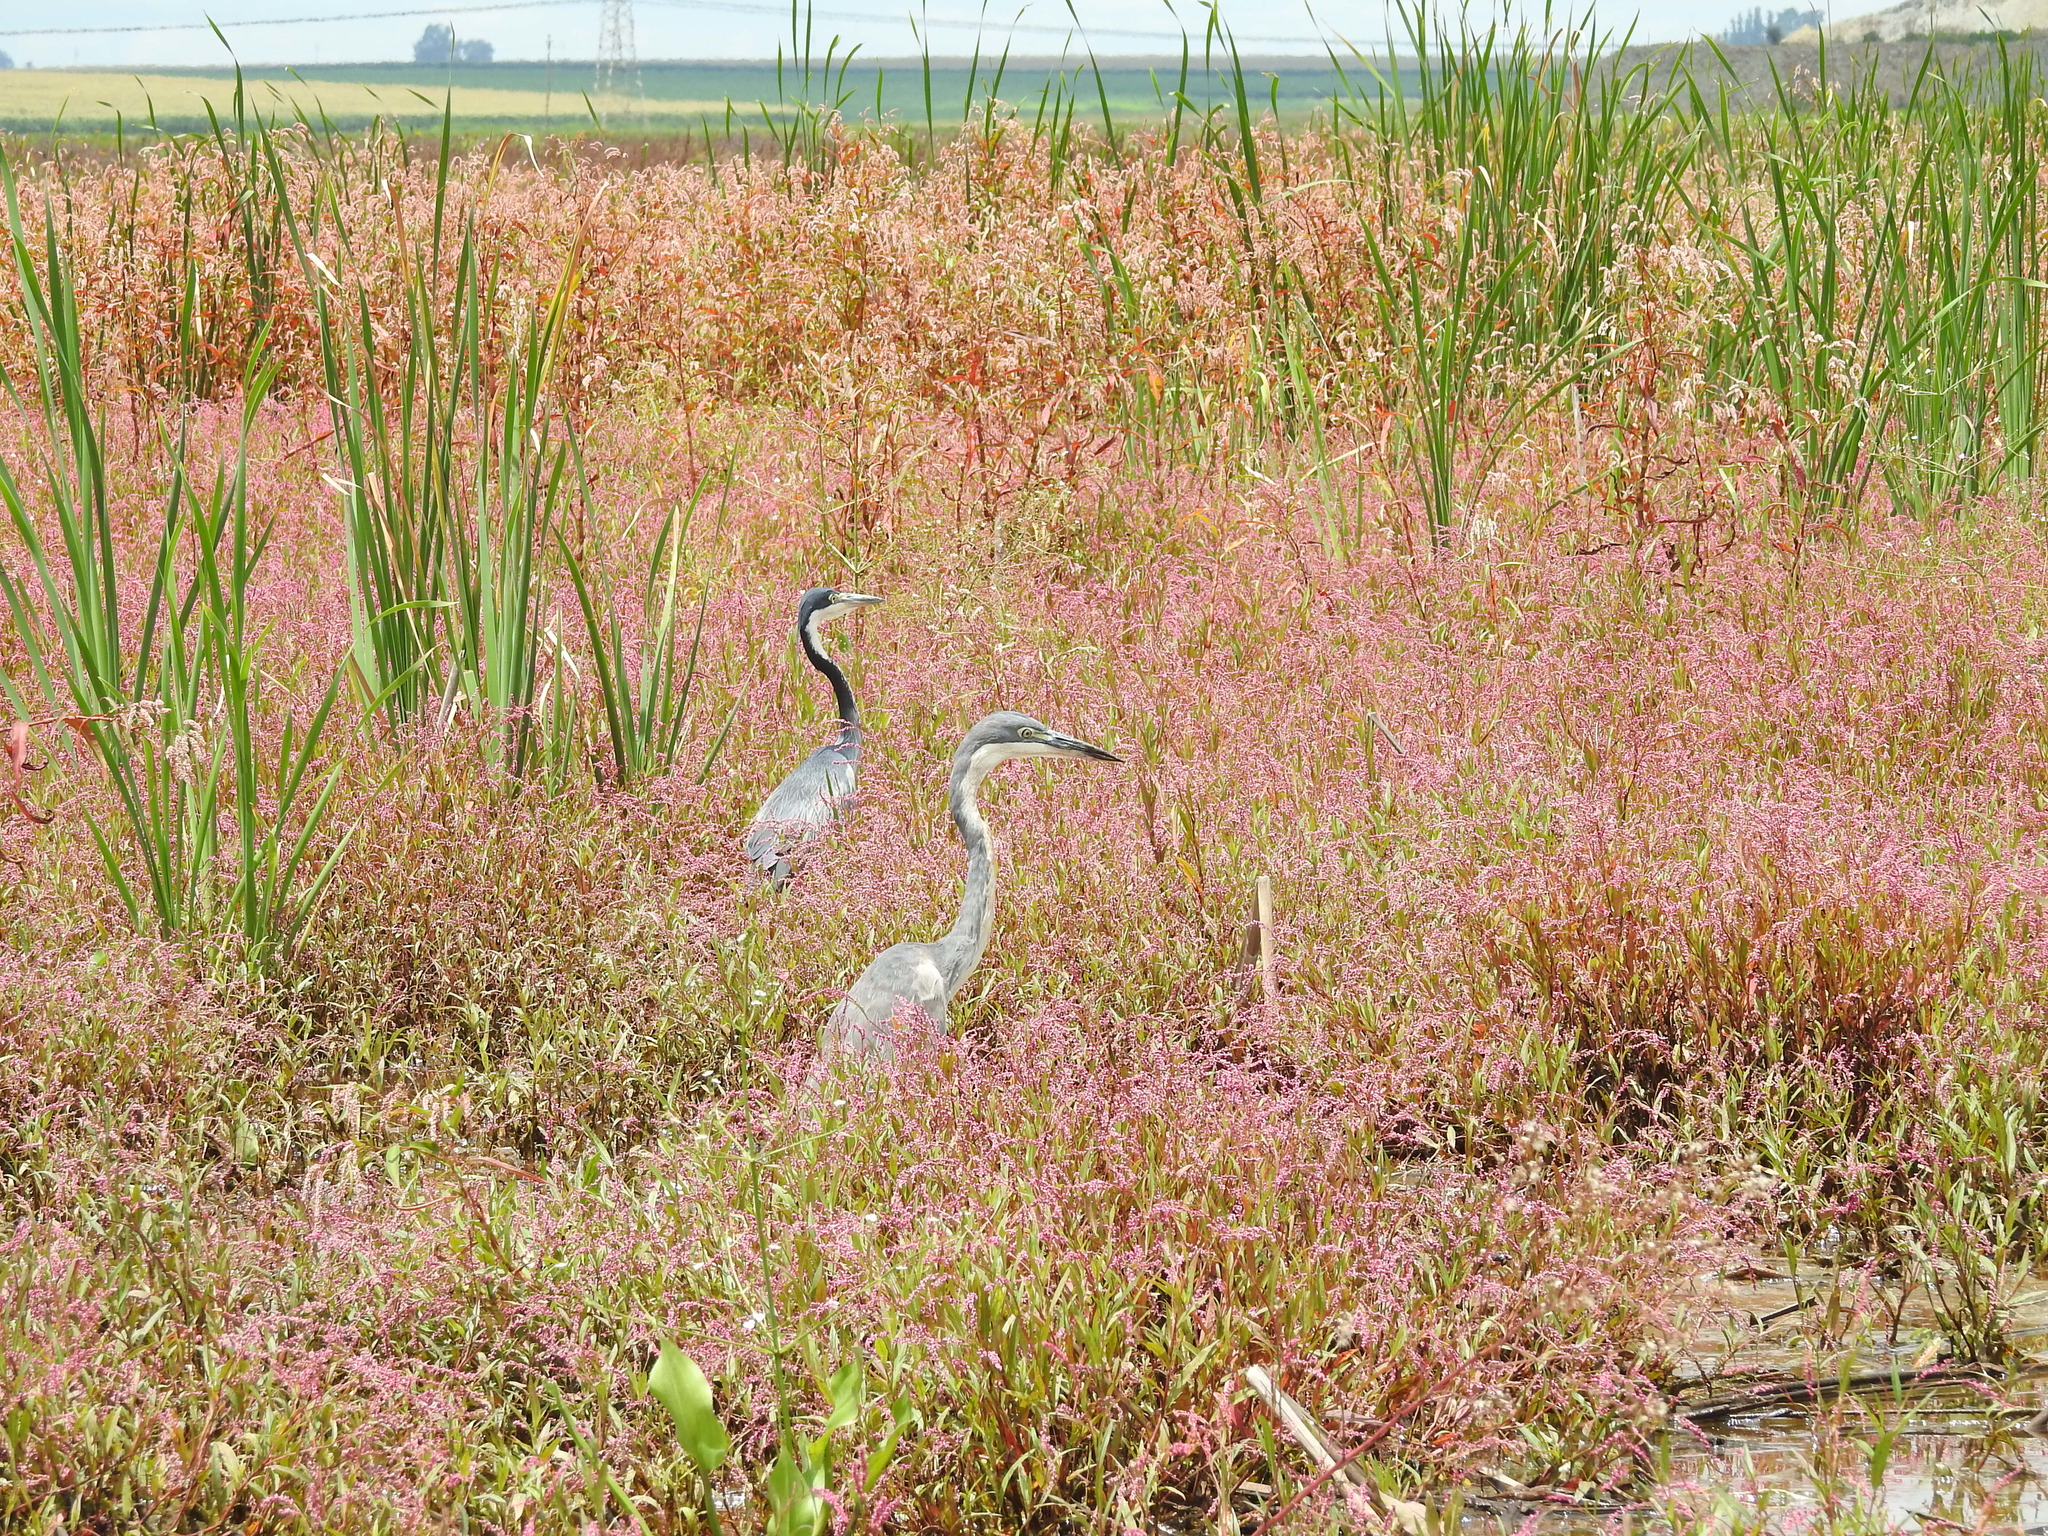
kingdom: Animalia
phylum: Chordata
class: Aves
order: Pelecaniformes
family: Ardeidae
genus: Ardea
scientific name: Ardea melanocephala
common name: Black-headed heron
